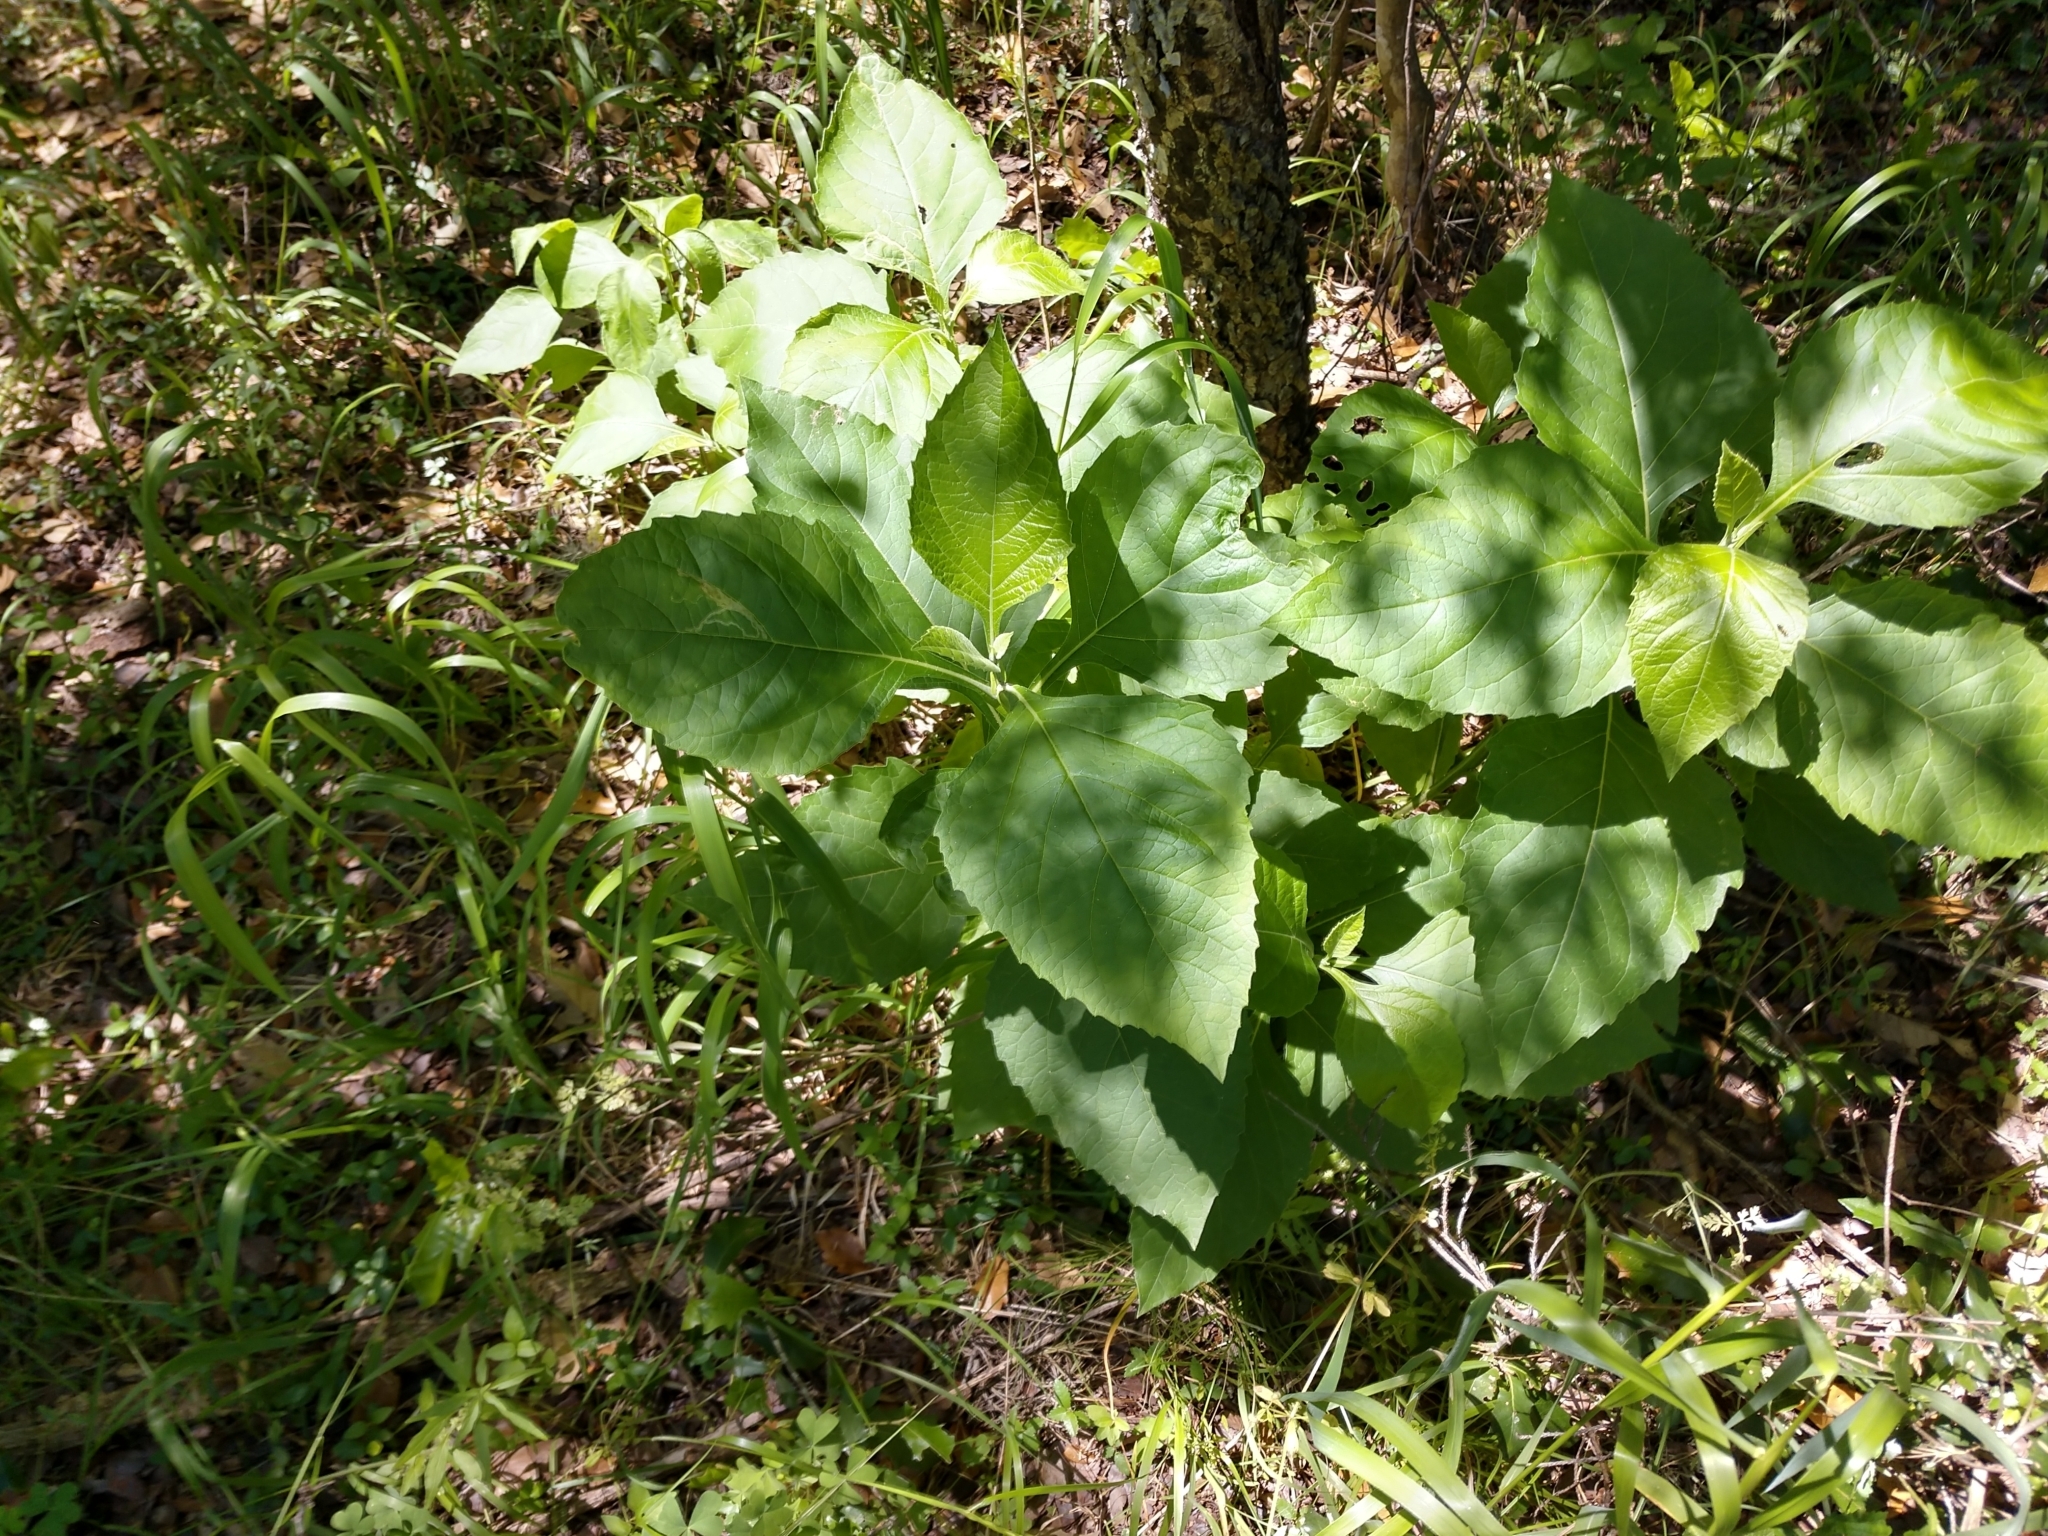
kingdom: Plantae
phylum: Tracheophyta
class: Magnoliopsida
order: Asterales
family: Asteraceae
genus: Verbesina
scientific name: Verbesina virginica
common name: Frostweed
